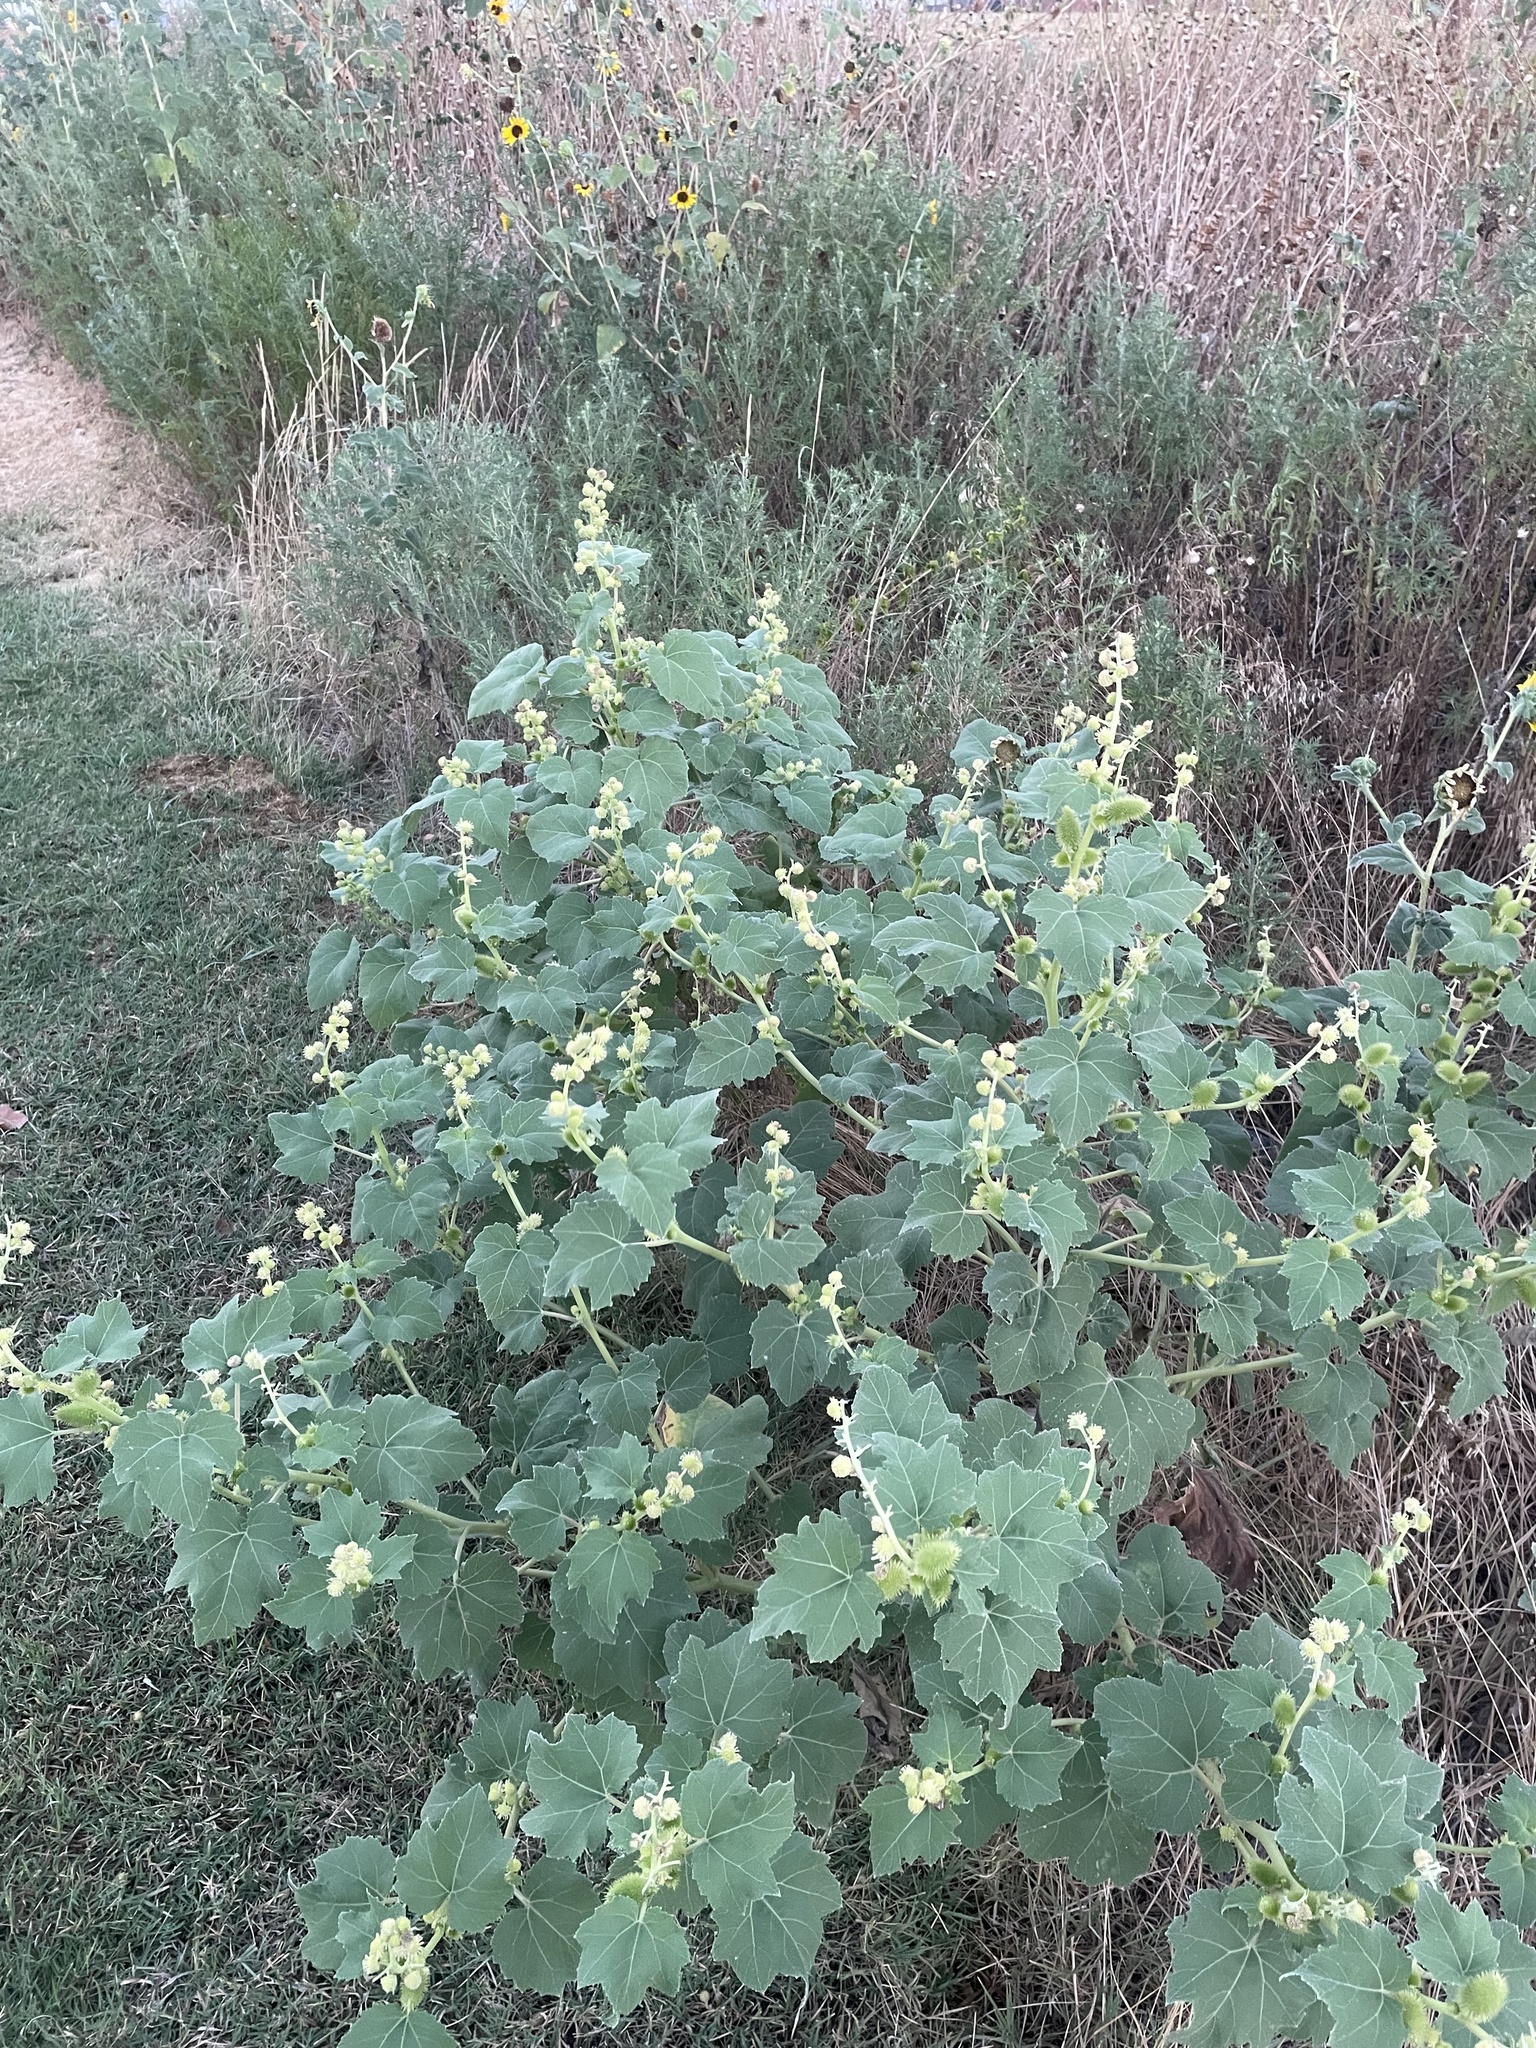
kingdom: Plantae
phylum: Tracheophyta
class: Magnoliopsida
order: Asterales
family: Asteraceae
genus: Xanthium
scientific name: Xanthium strumarium
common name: Rough cocklebur
